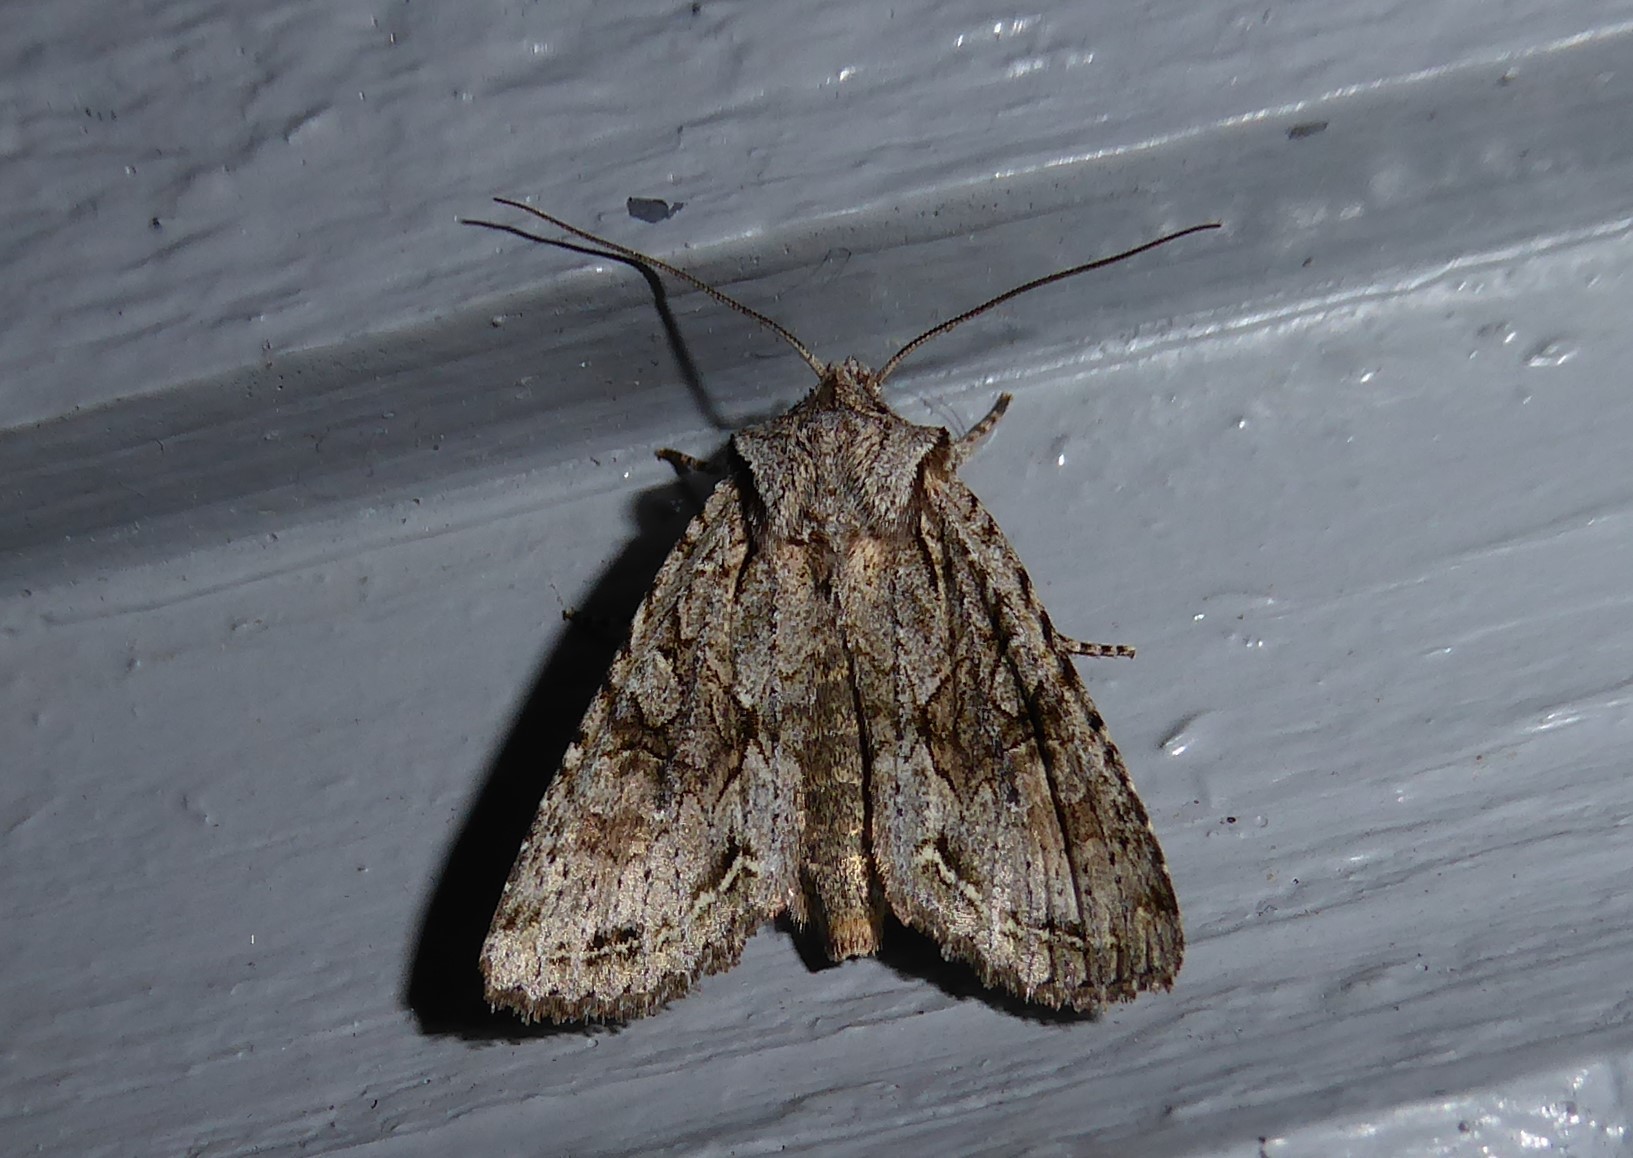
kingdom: Animalia
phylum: Arthropoda
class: Insecta
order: Lepidoptera
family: Noctuidae
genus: Ichneutica
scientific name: Ichneutica mutans
